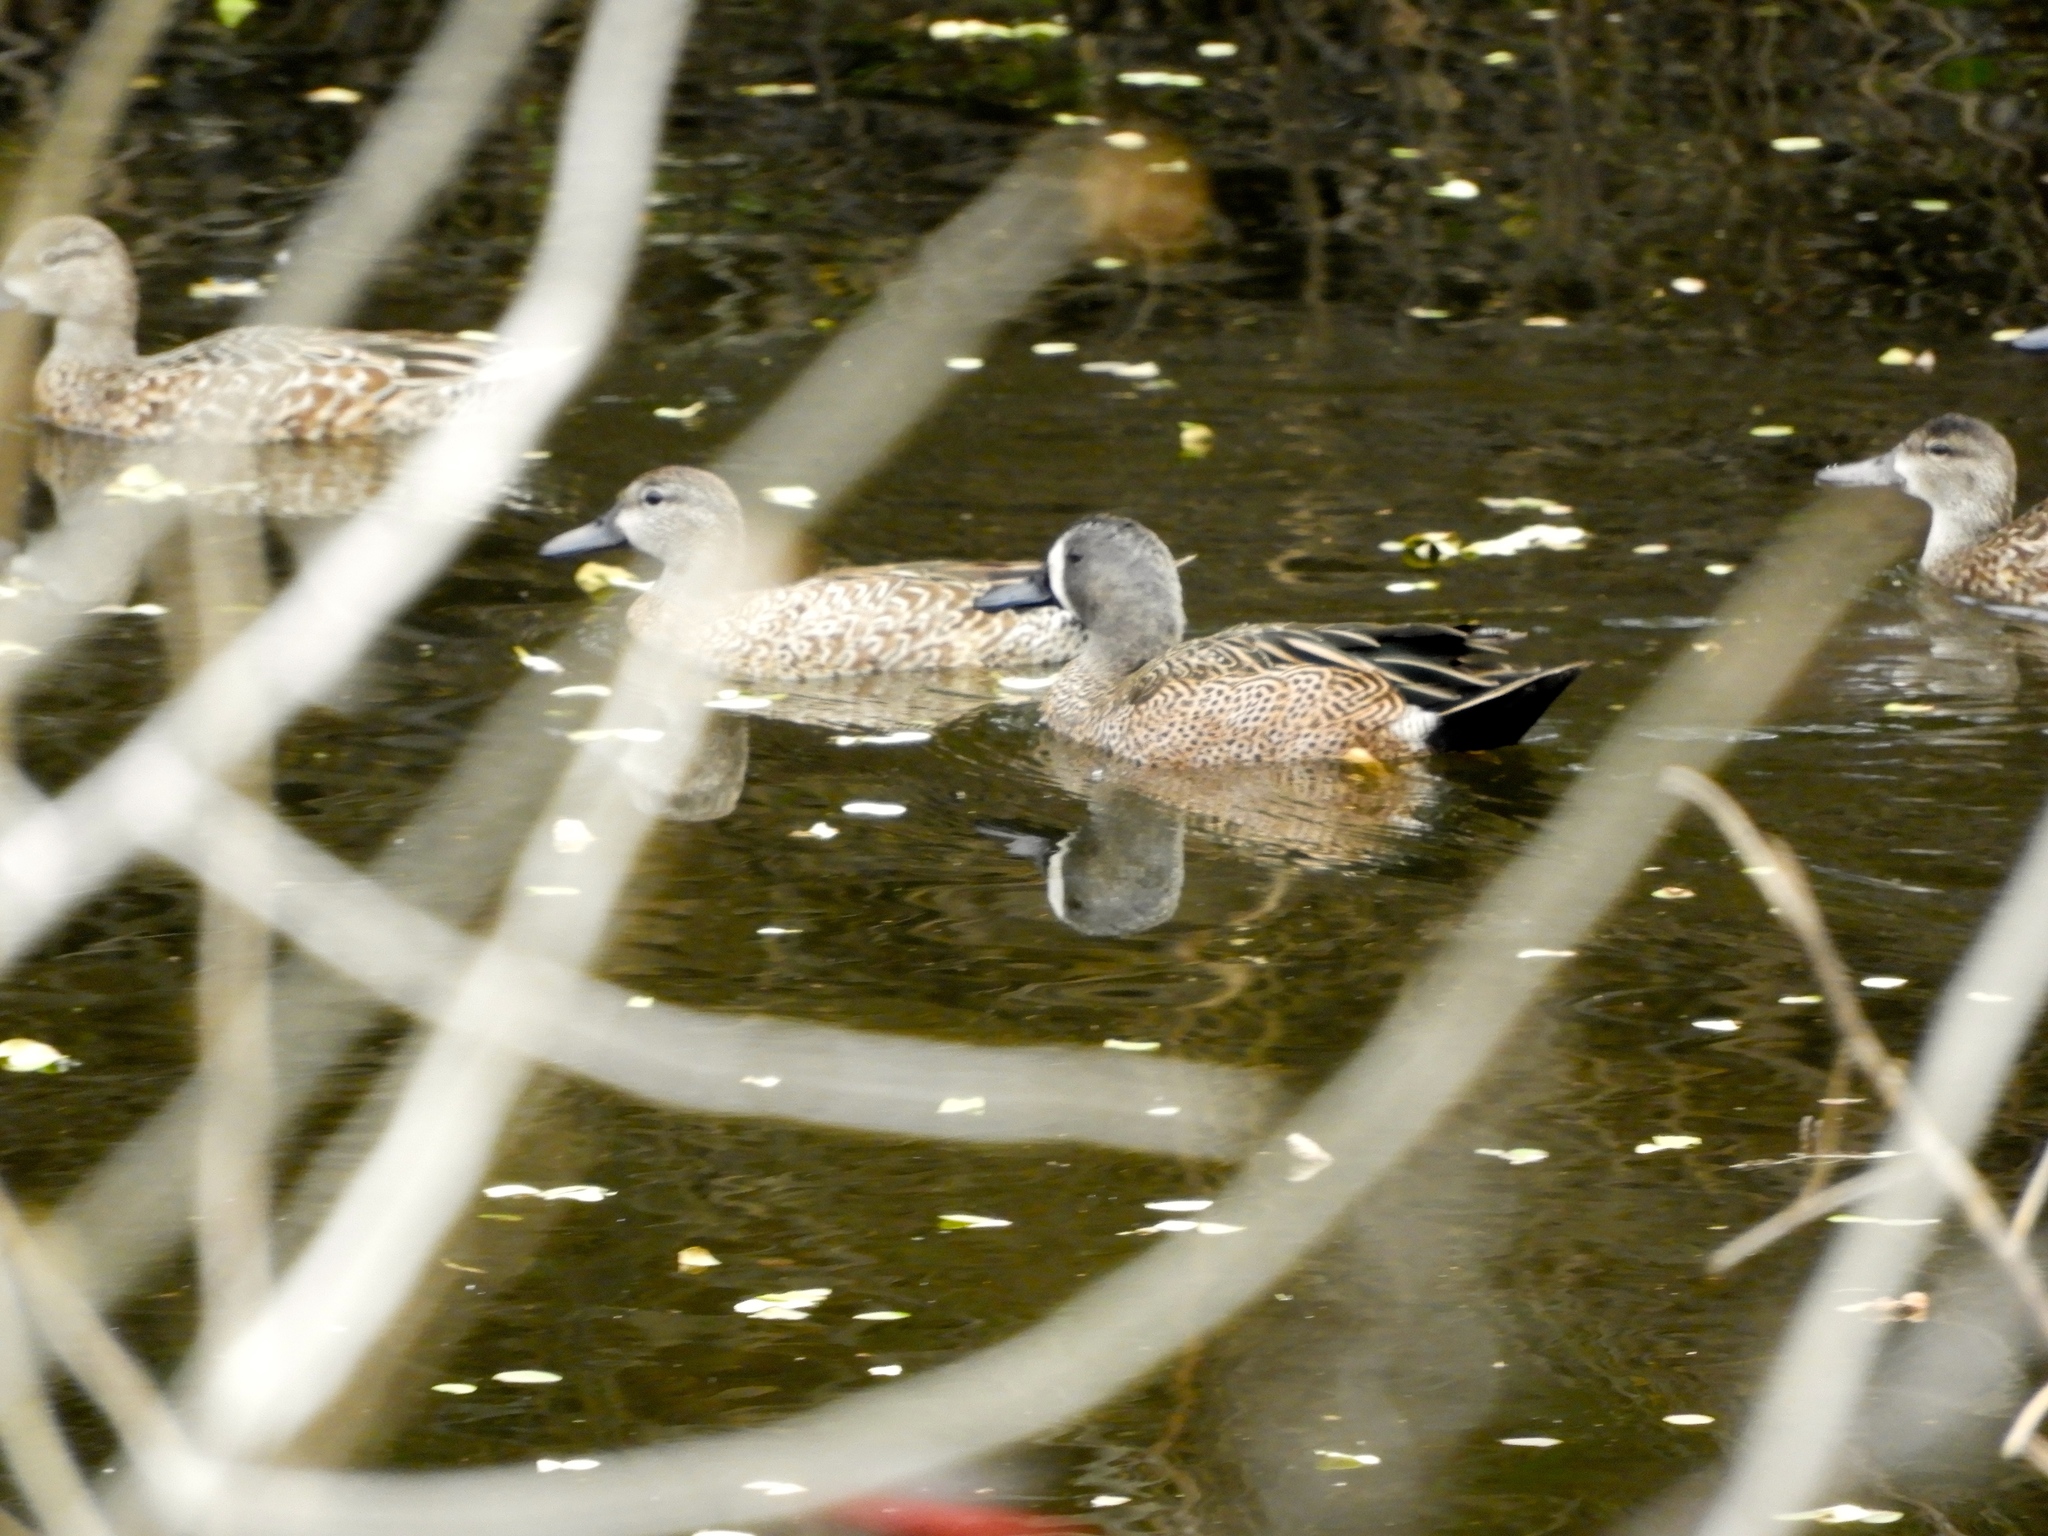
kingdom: Animalia
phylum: Chordata
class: Aves
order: Anseriformes
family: Anatidae
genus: Spatula
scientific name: Spatula discors
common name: Blue-winged teal
